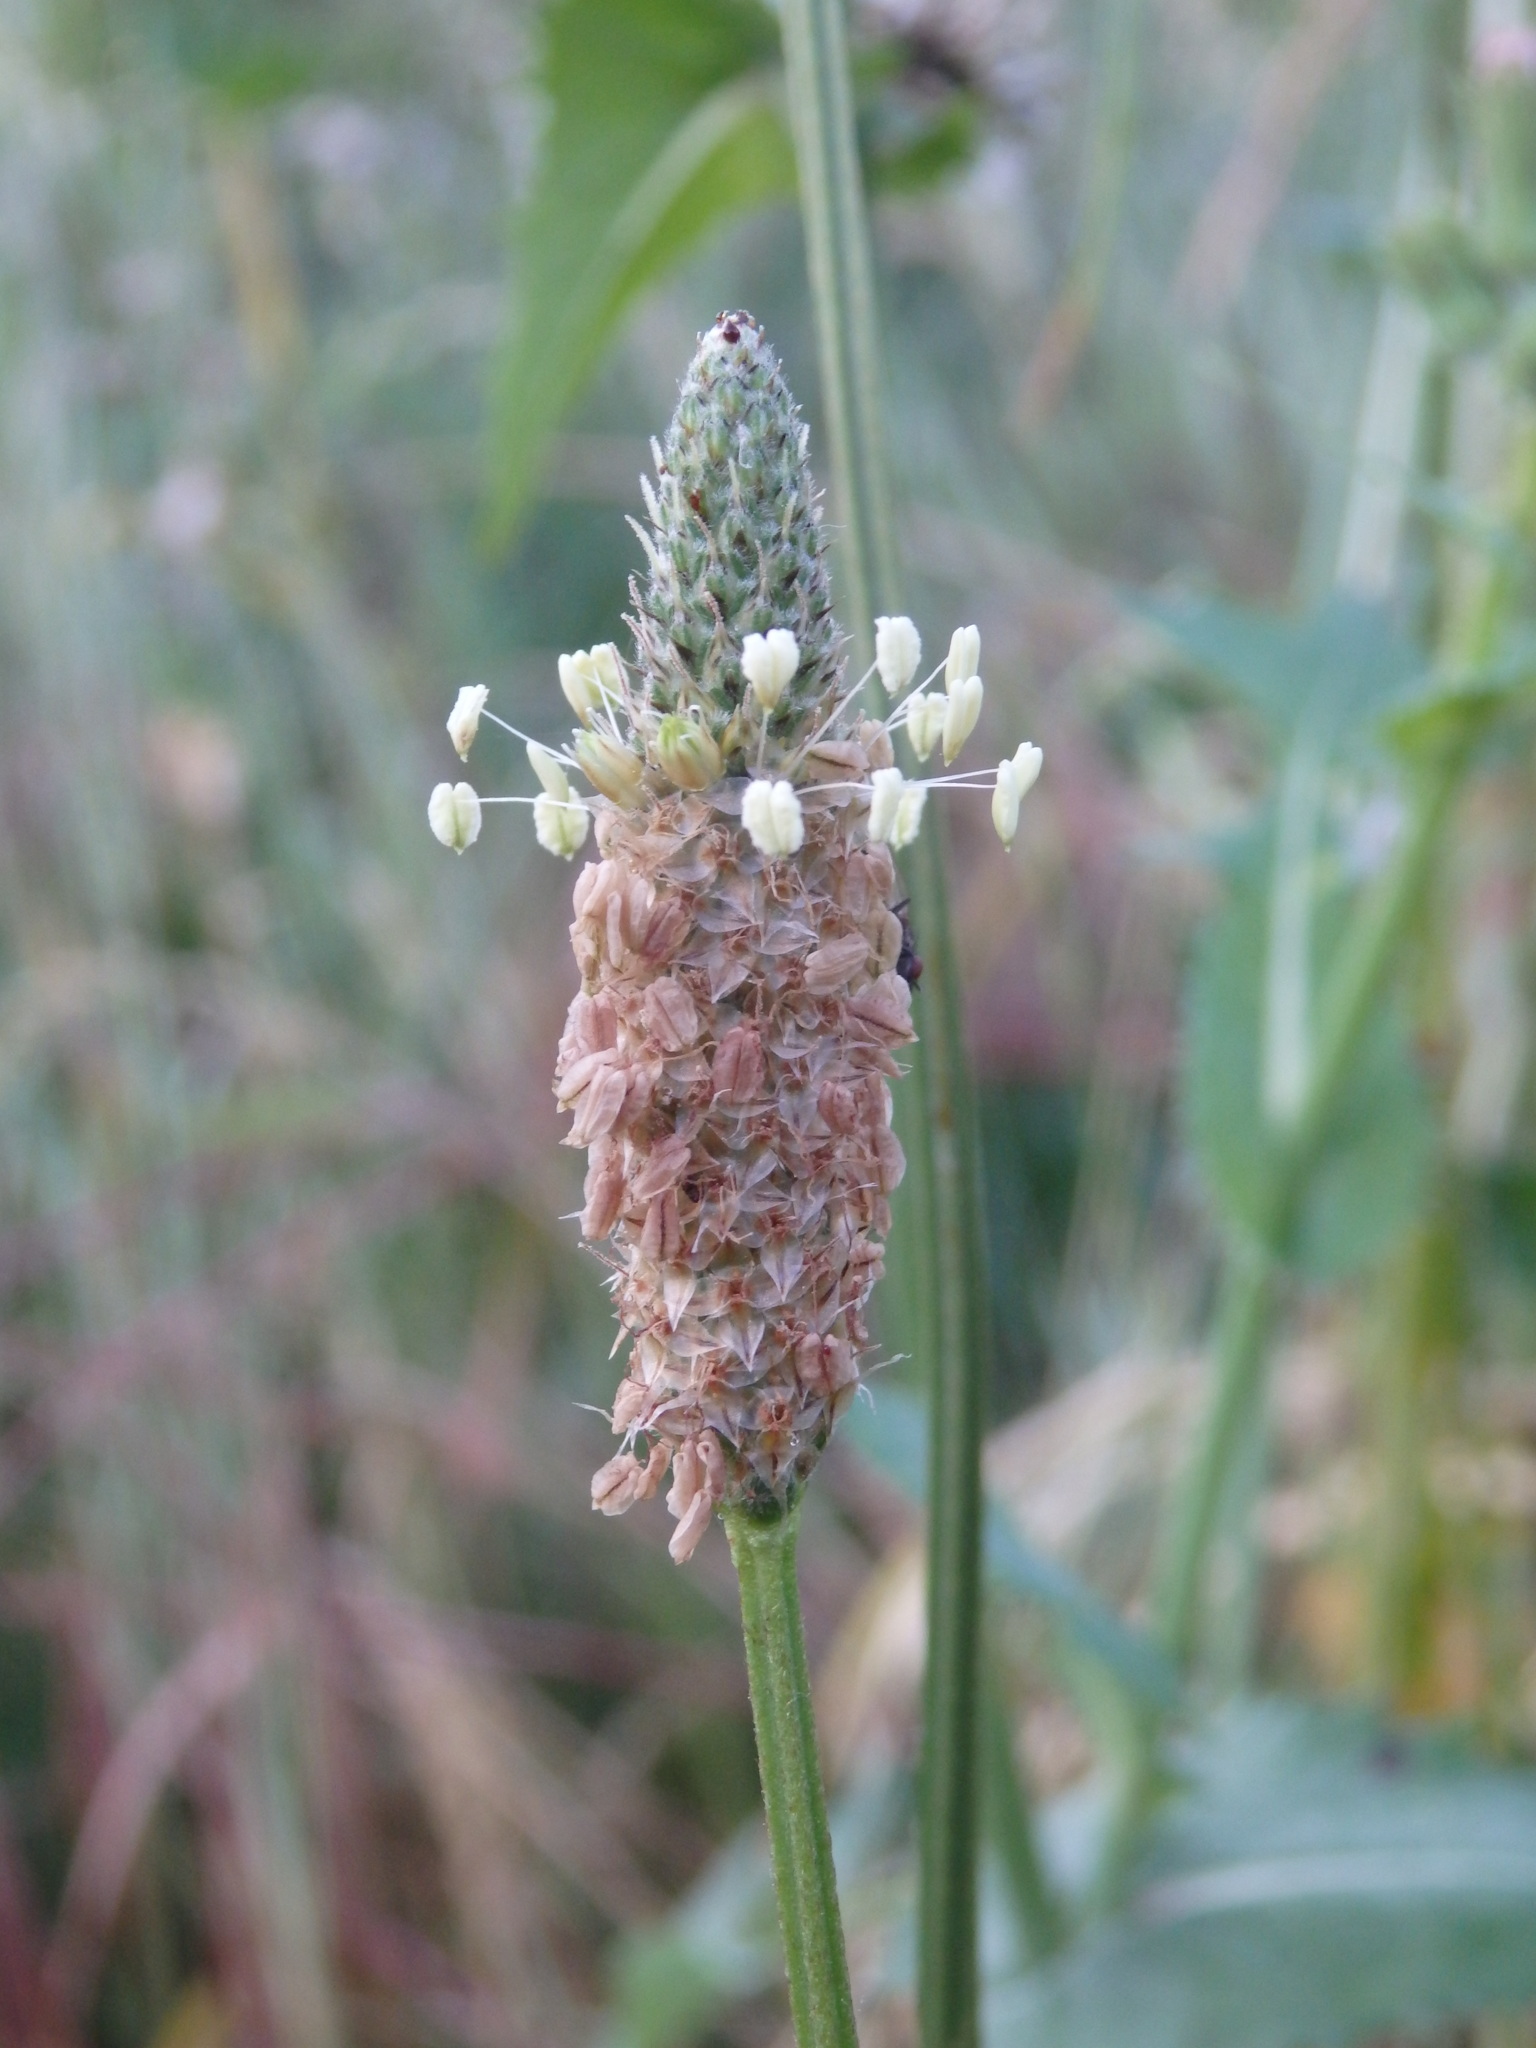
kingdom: Plantae
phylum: Tracheophyta
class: Magnoliopsida
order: Lamiales
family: Plantaginaceae
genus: Plantago
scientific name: Plantago lanceolata
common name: Ribwort plantain
